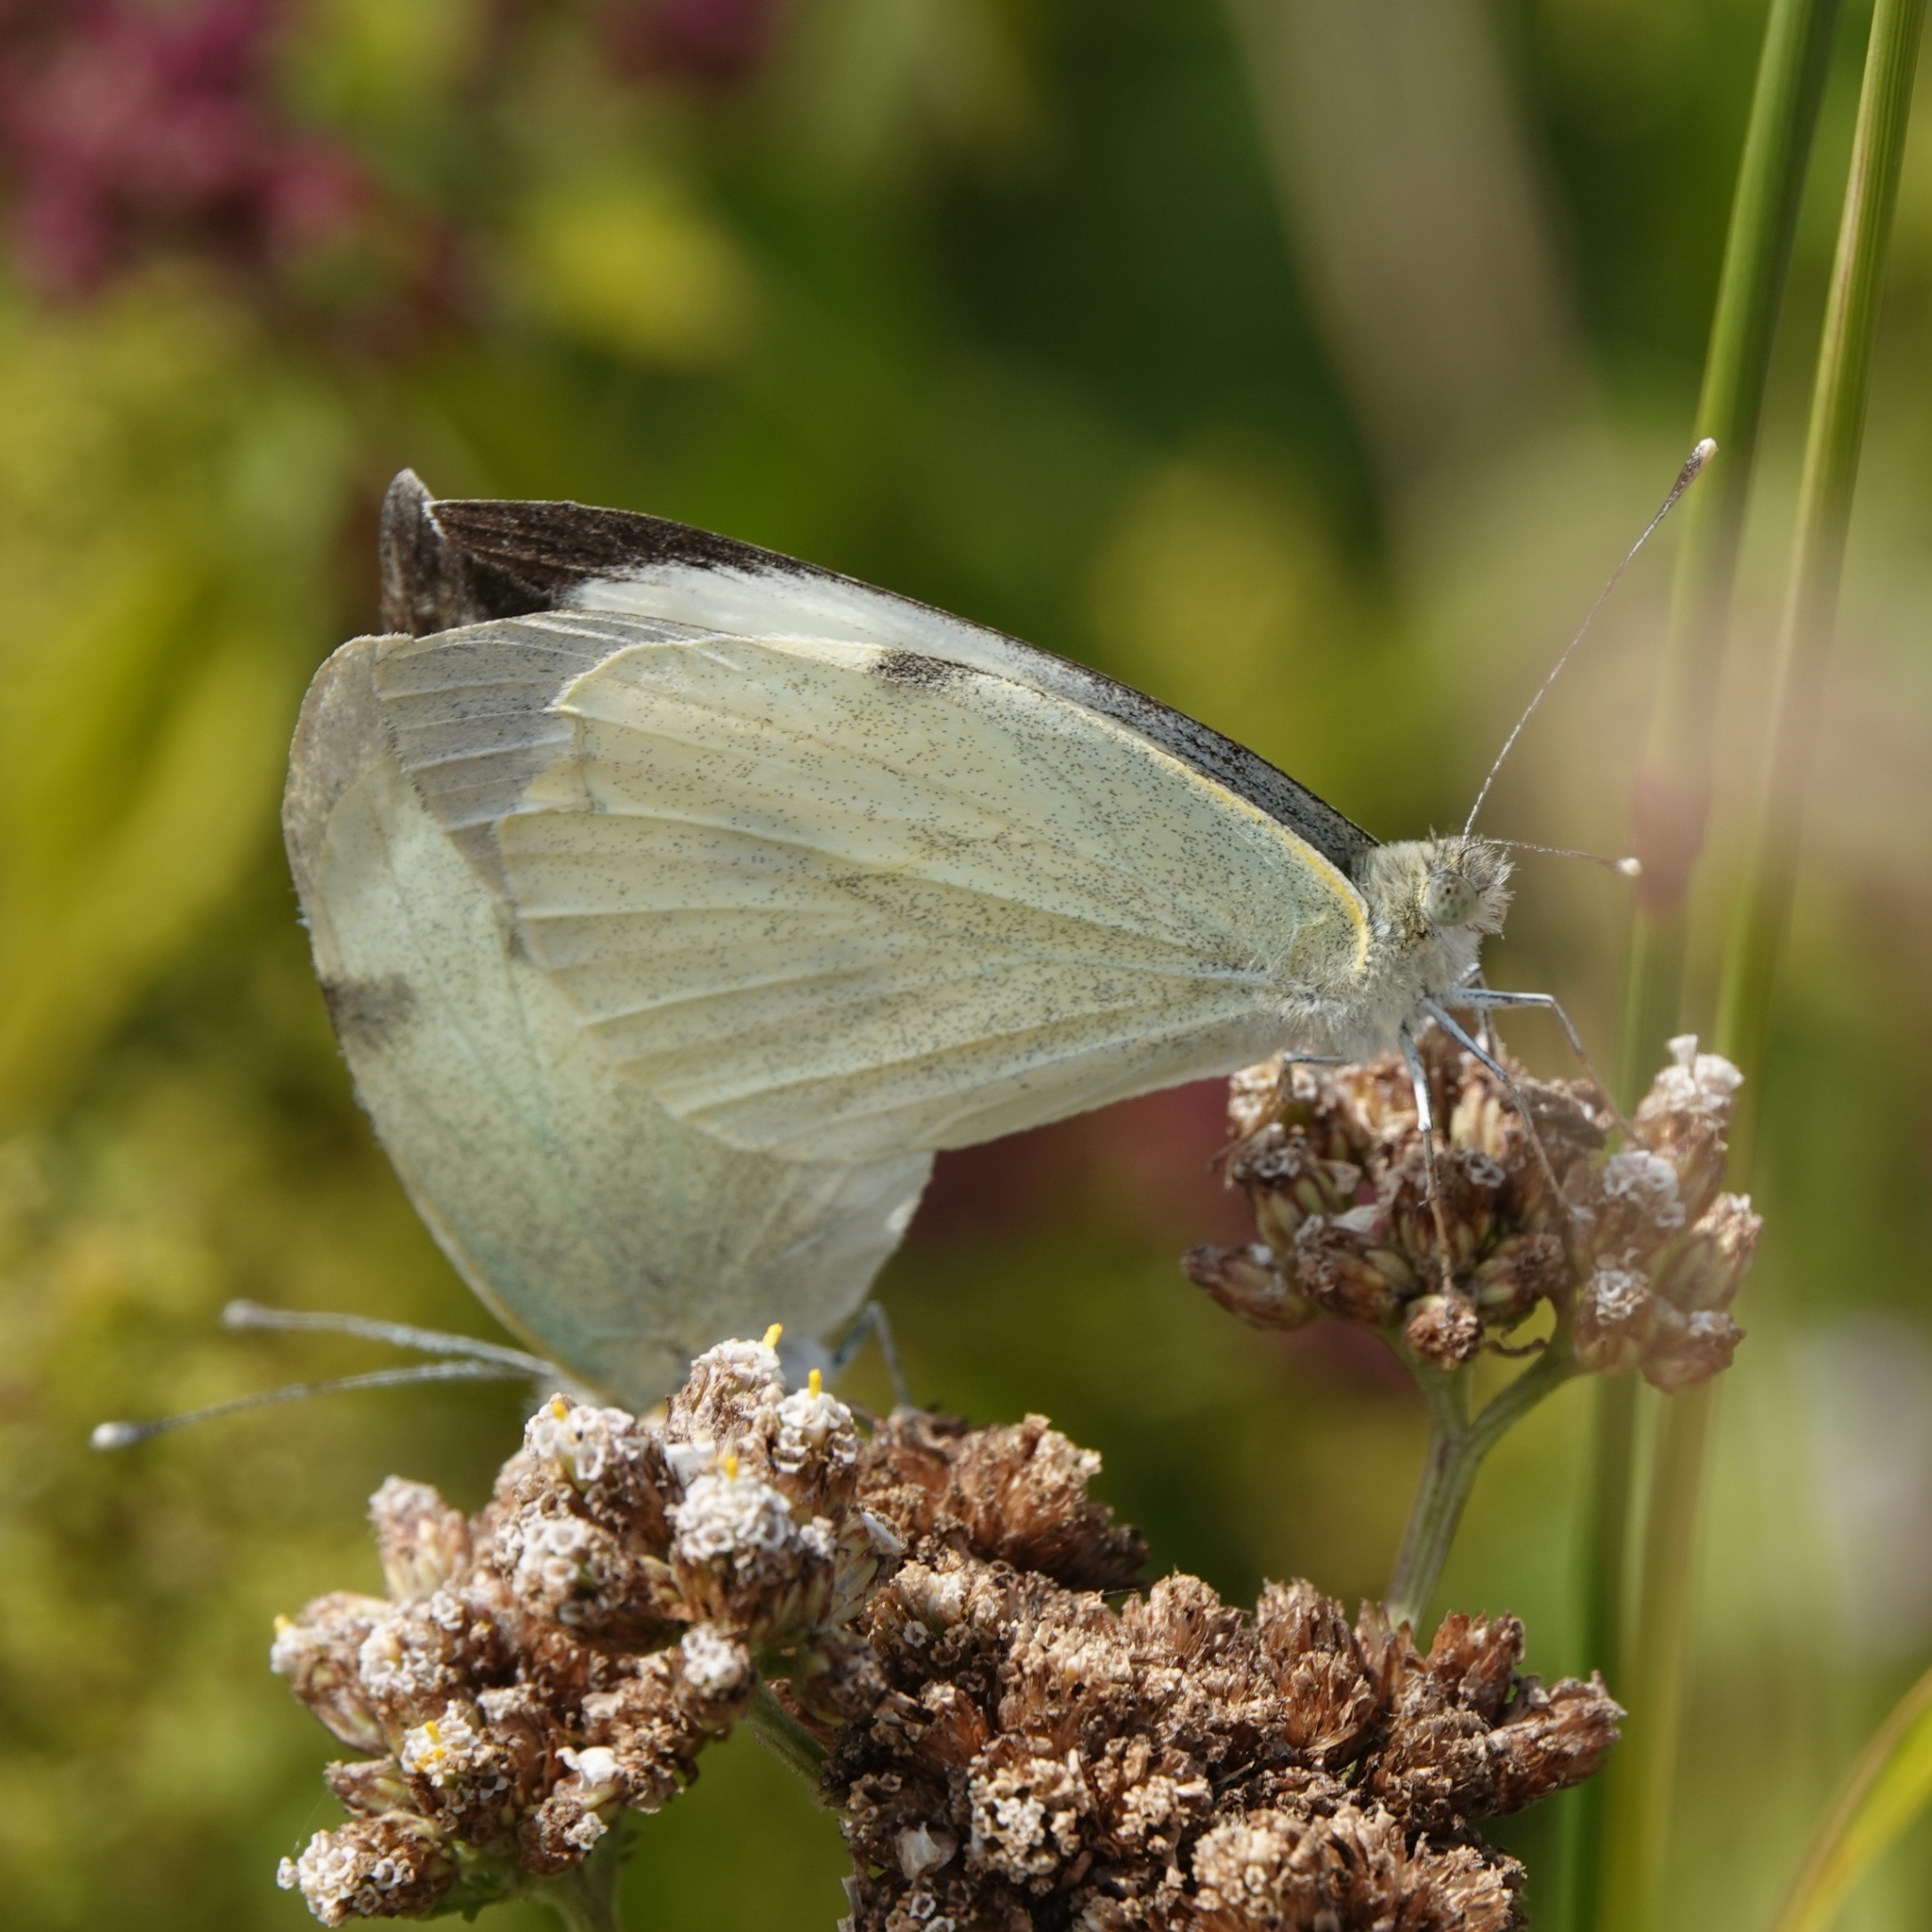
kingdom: Animalia
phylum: Arthropoda
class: Insecta
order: Lepidoptera
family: Pieridae
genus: Pieris
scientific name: Pieris brassicae
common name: Large white
